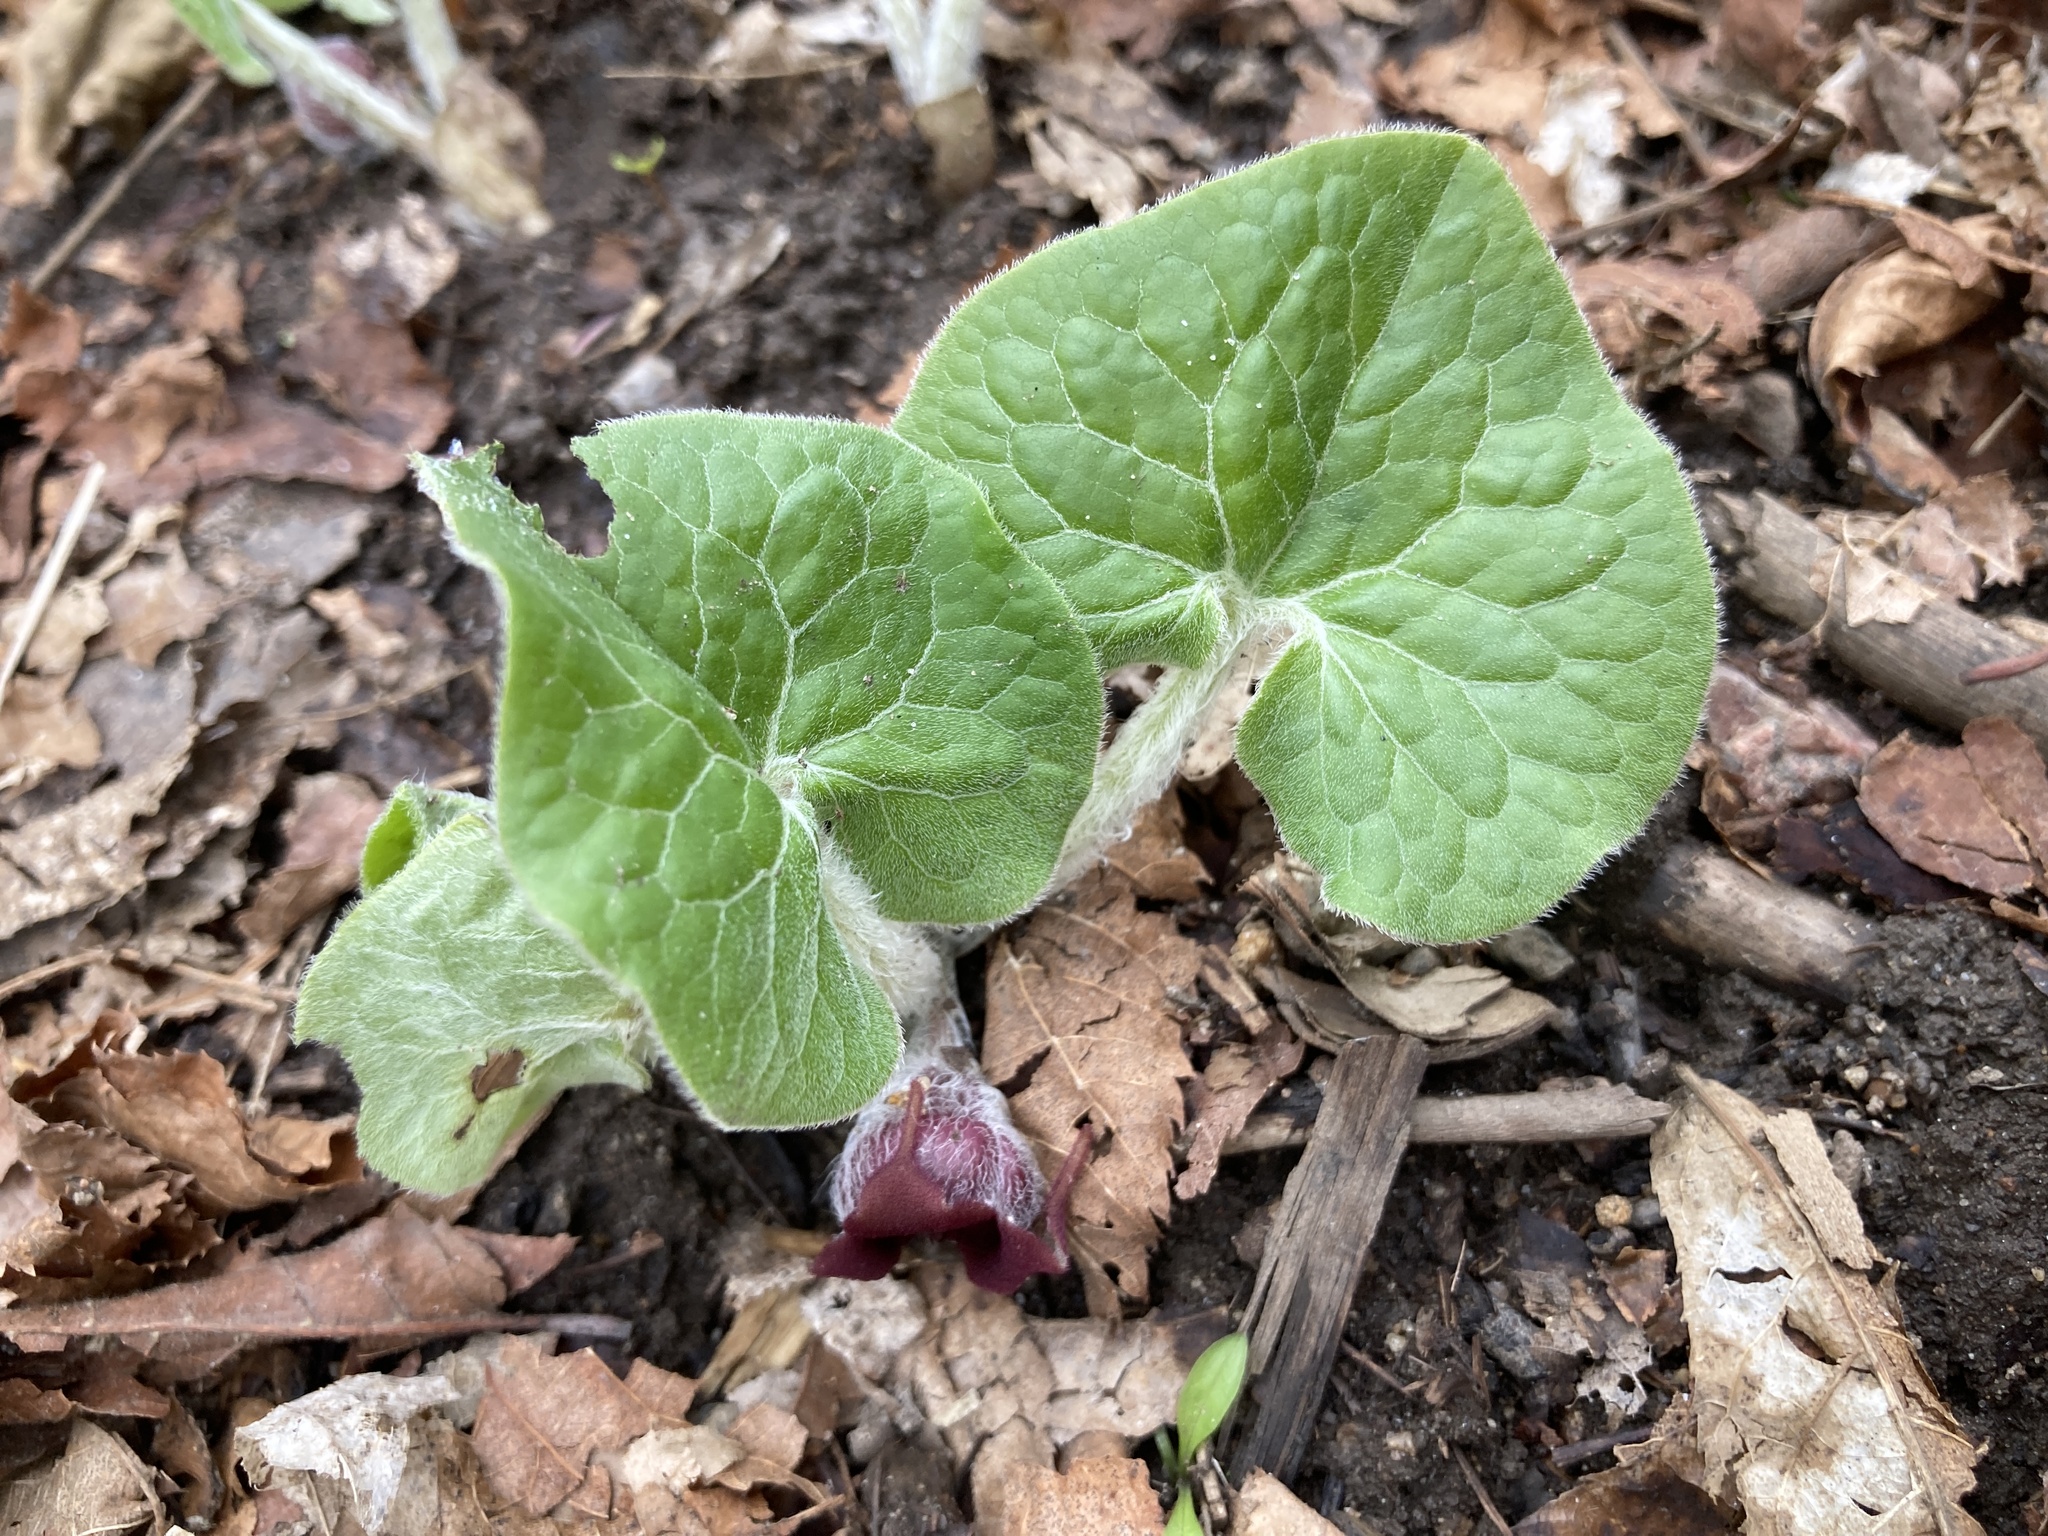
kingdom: Plantae
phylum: Tracheophyta
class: Magnoliopsida
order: Piperales
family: Aristolochiaceae
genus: Asarum
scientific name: Asarum canadense
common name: Wild ginger
